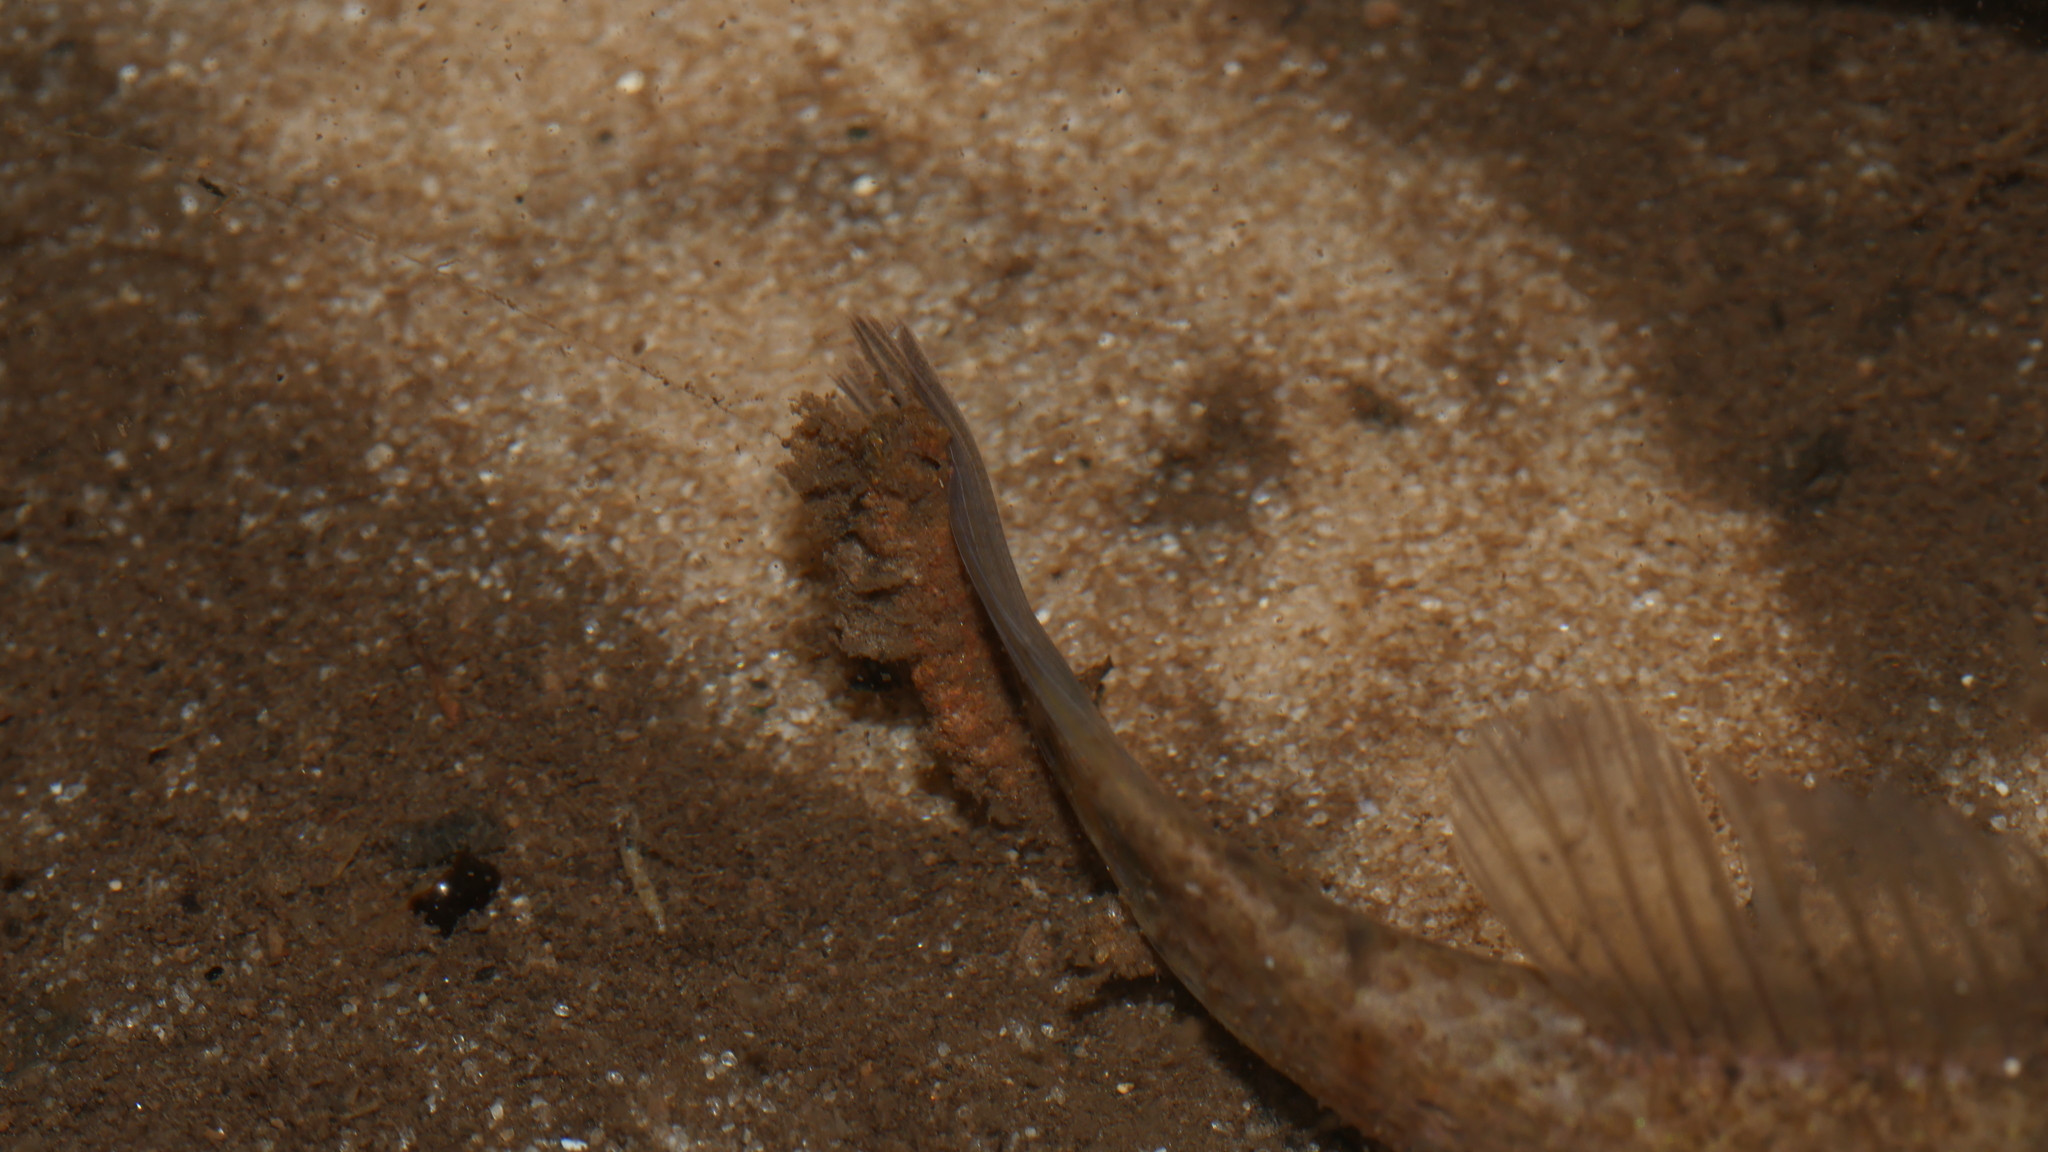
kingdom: Animalia
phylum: Chordata
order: Esociformes
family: Umbridae
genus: Umbra
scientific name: Umbra pygmaea
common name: Eastern mudminnow
